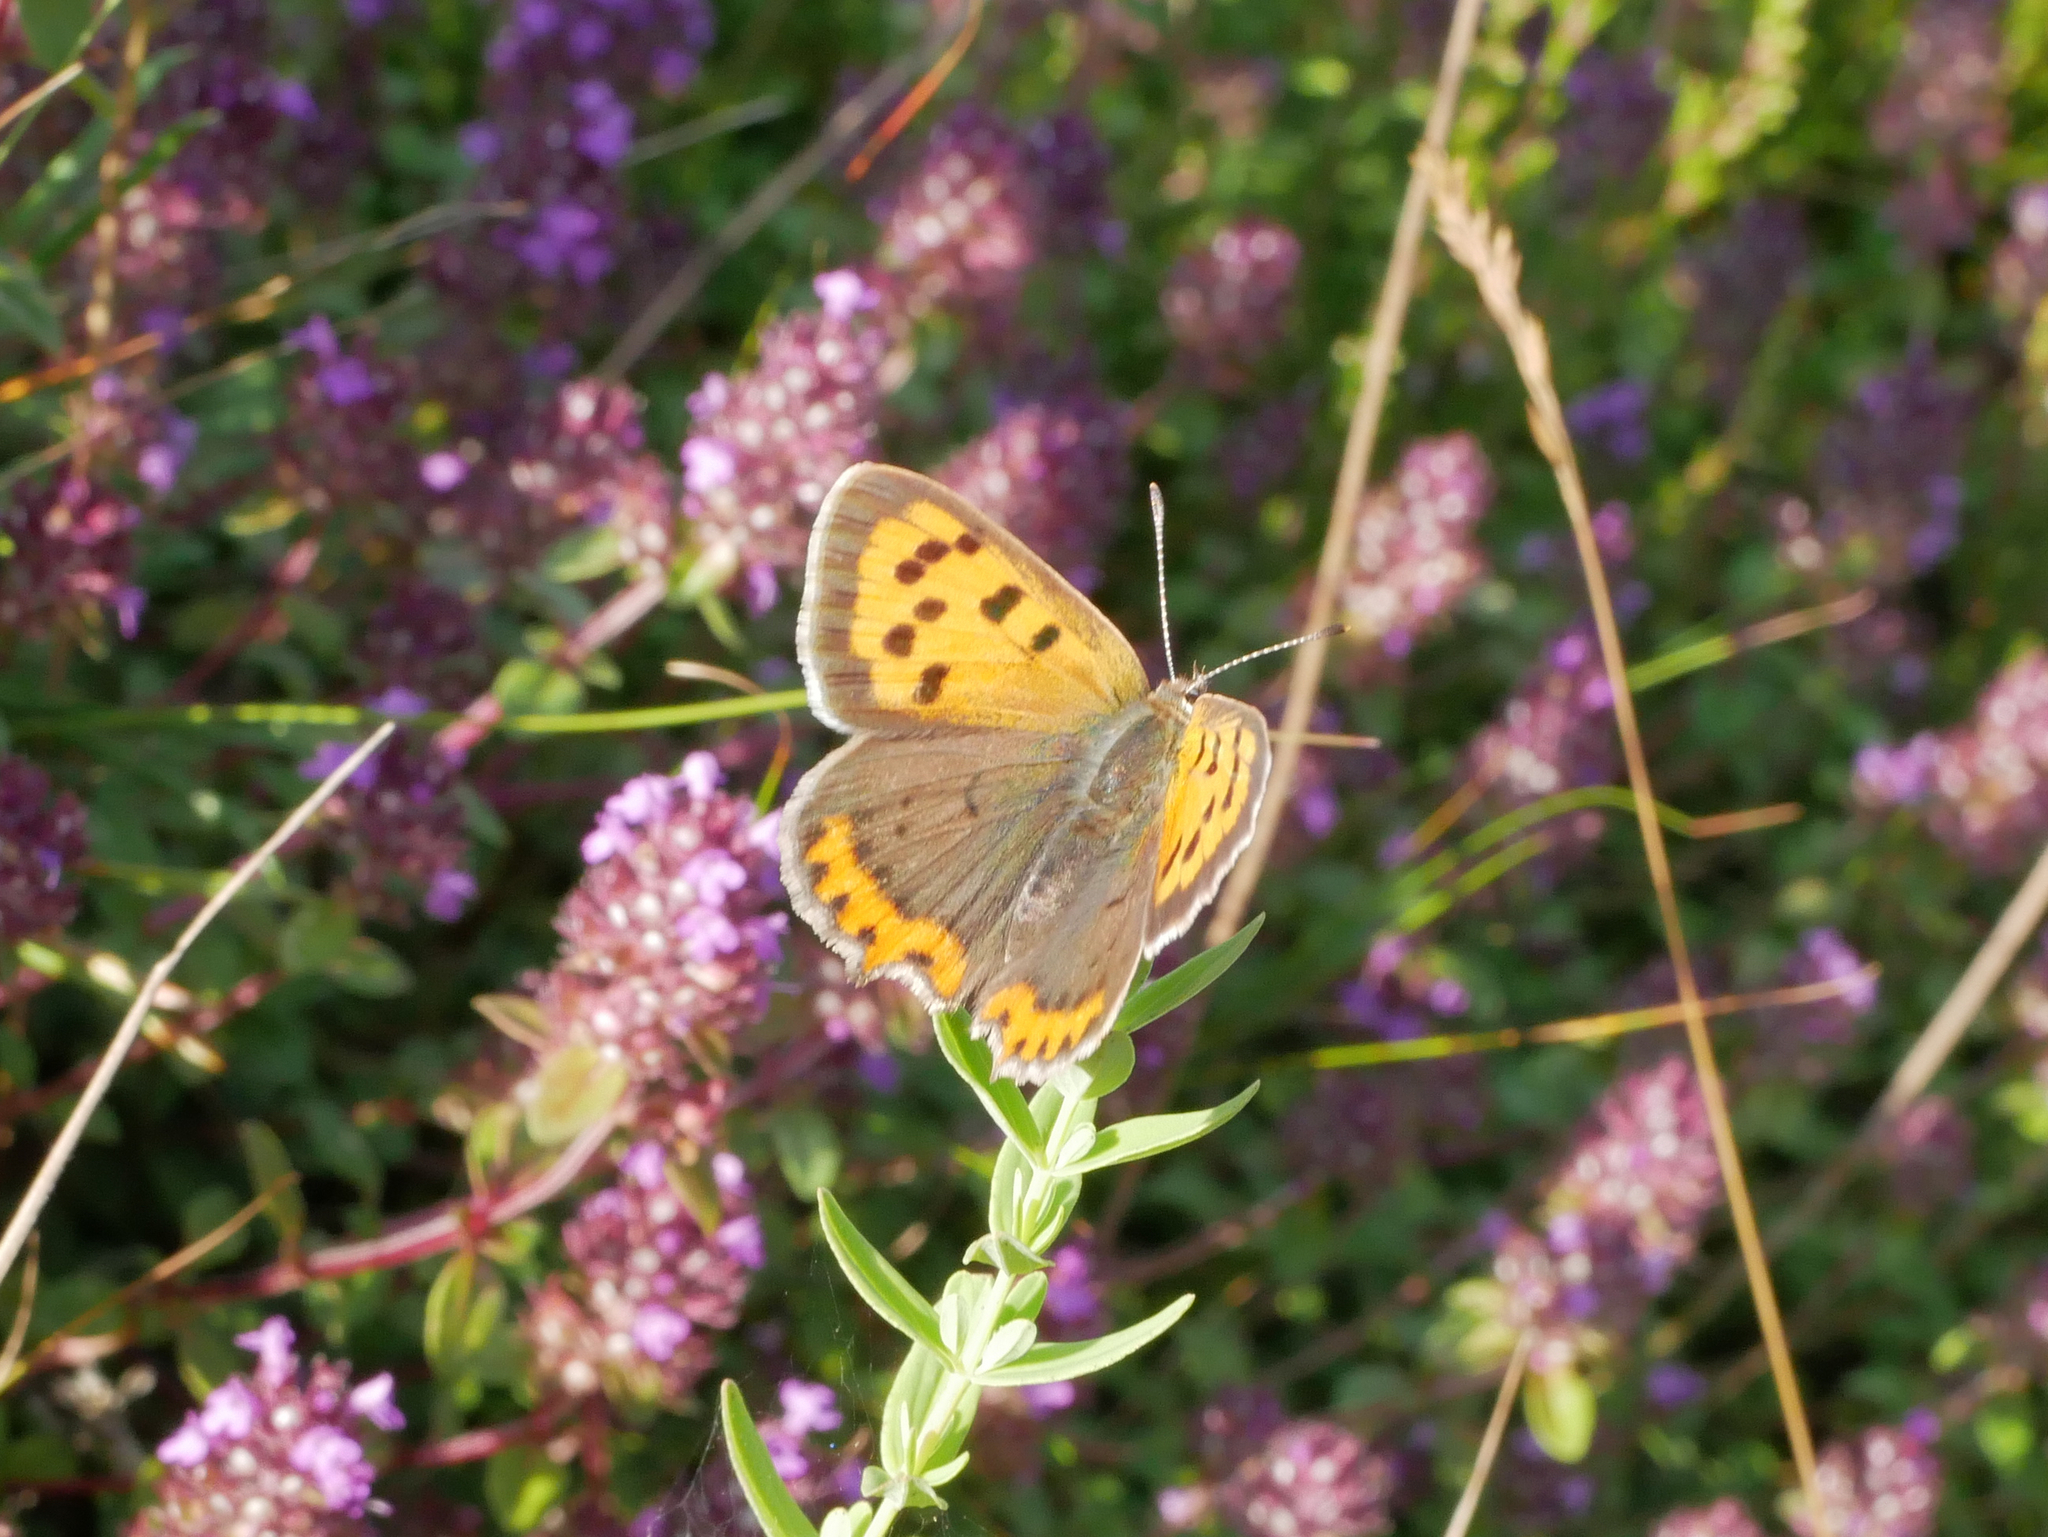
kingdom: Animalia
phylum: Arthropoda
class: Insecta
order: Lepidoptera
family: Lycaenidae
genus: Lycaena
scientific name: Lycaena phlaeas
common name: Small copper
